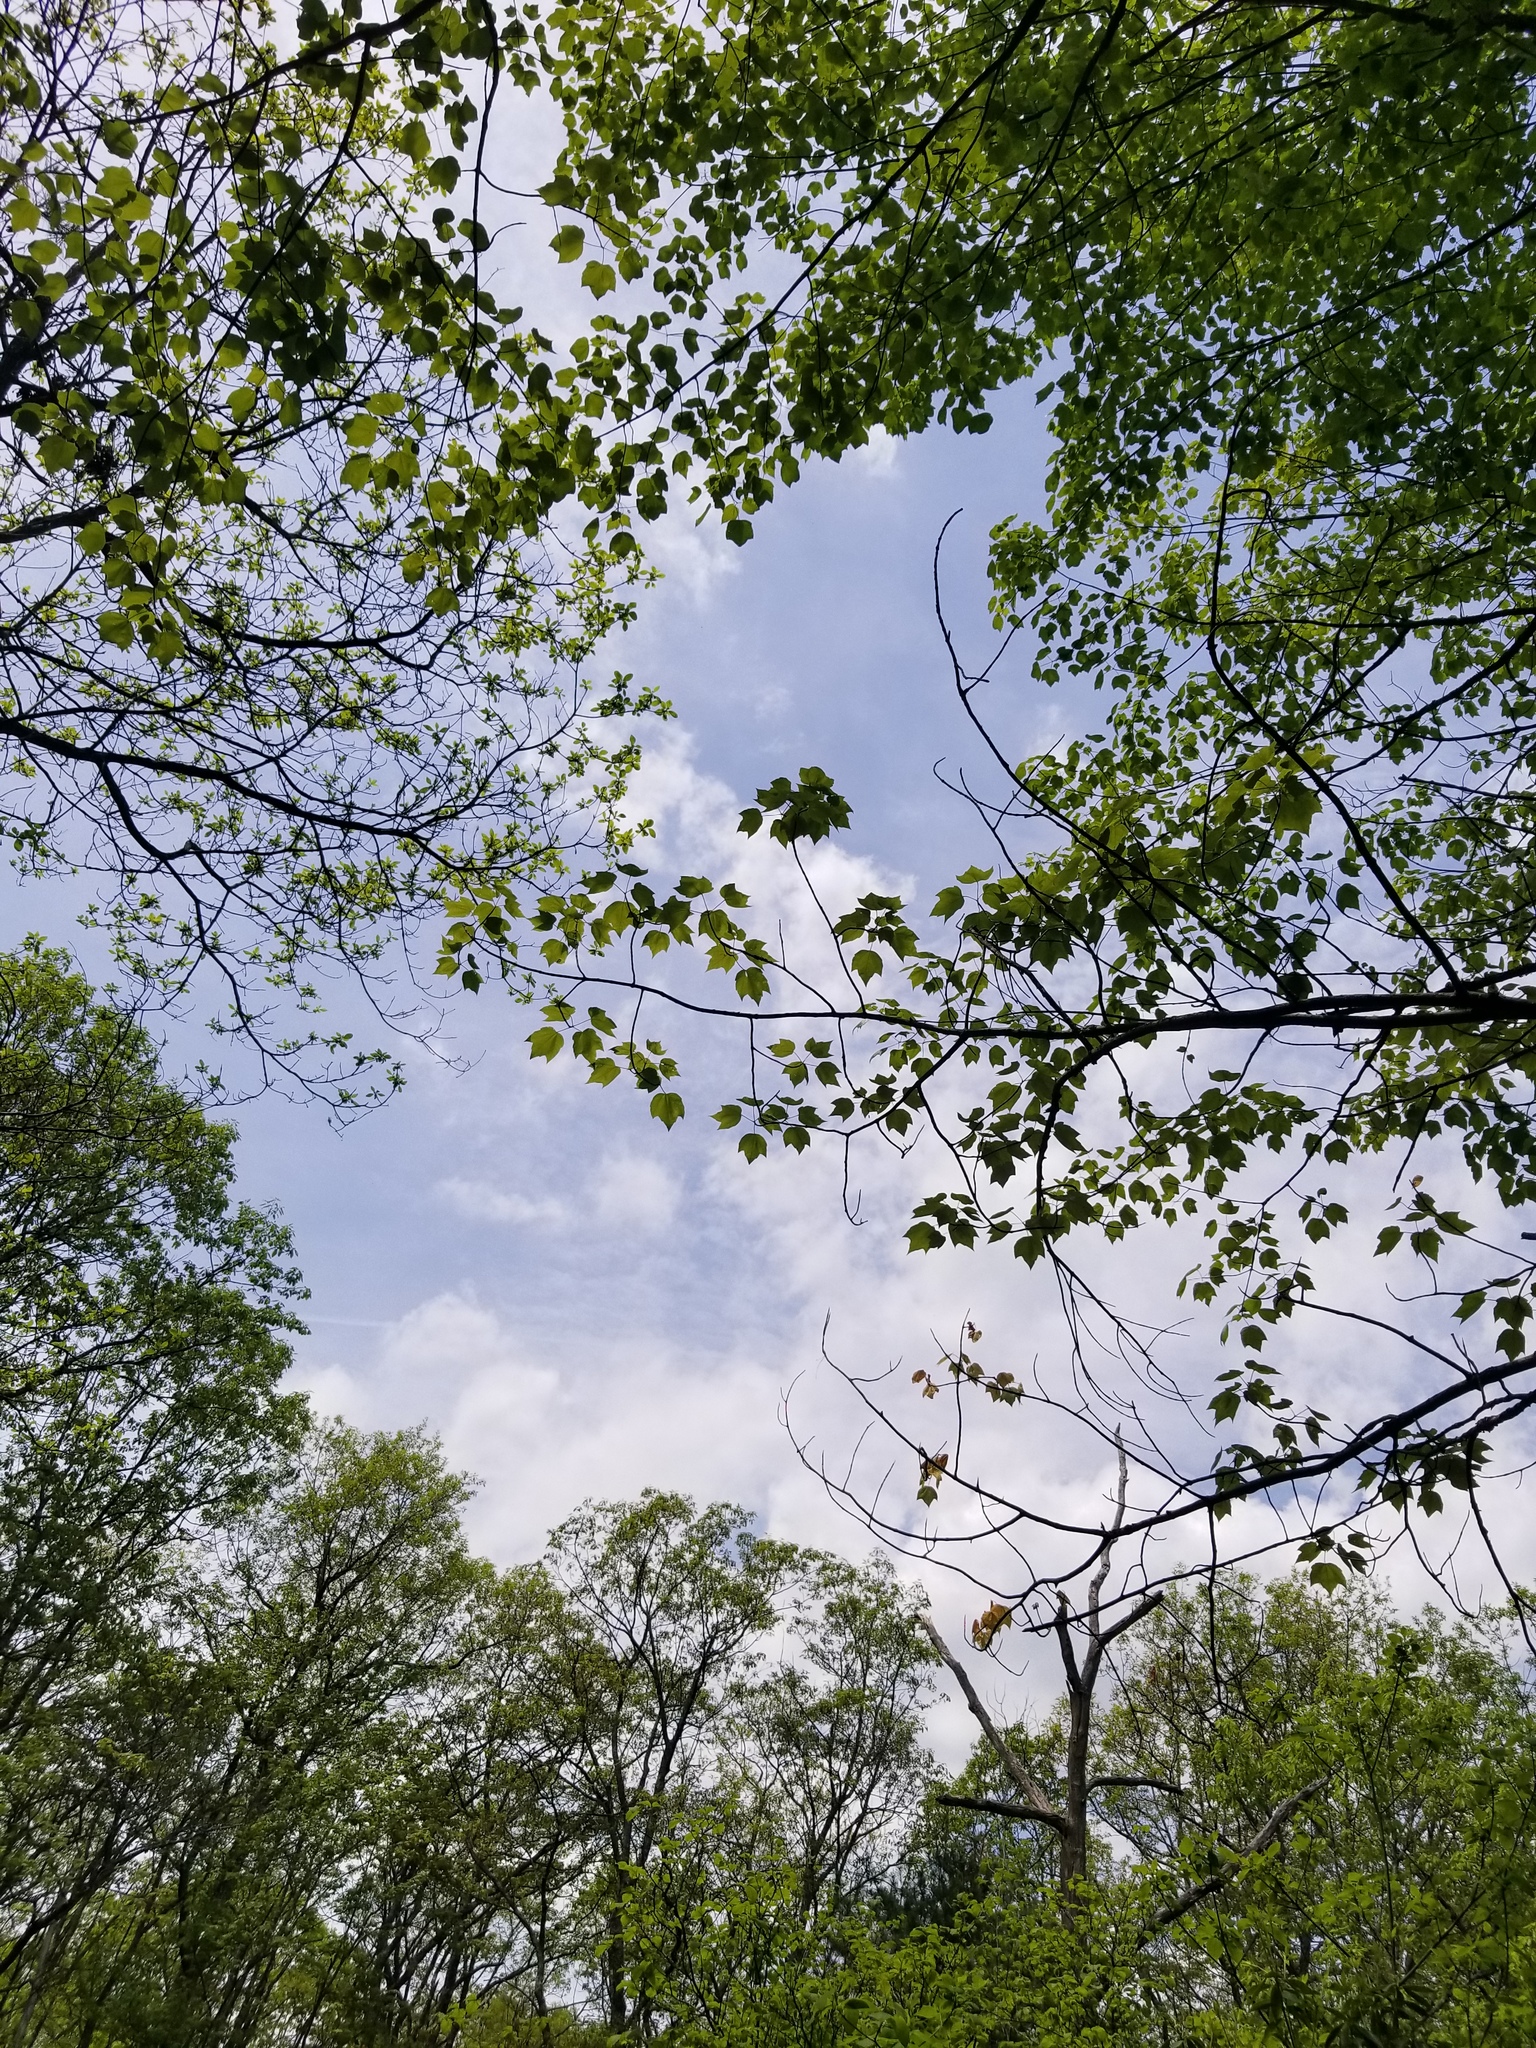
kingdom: Plantae
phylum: Tracheophyta
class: Magnoliopsida
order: Sapindales
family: Sapindaceae
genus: Acer
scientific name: Acer rubrum
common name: Red maple
